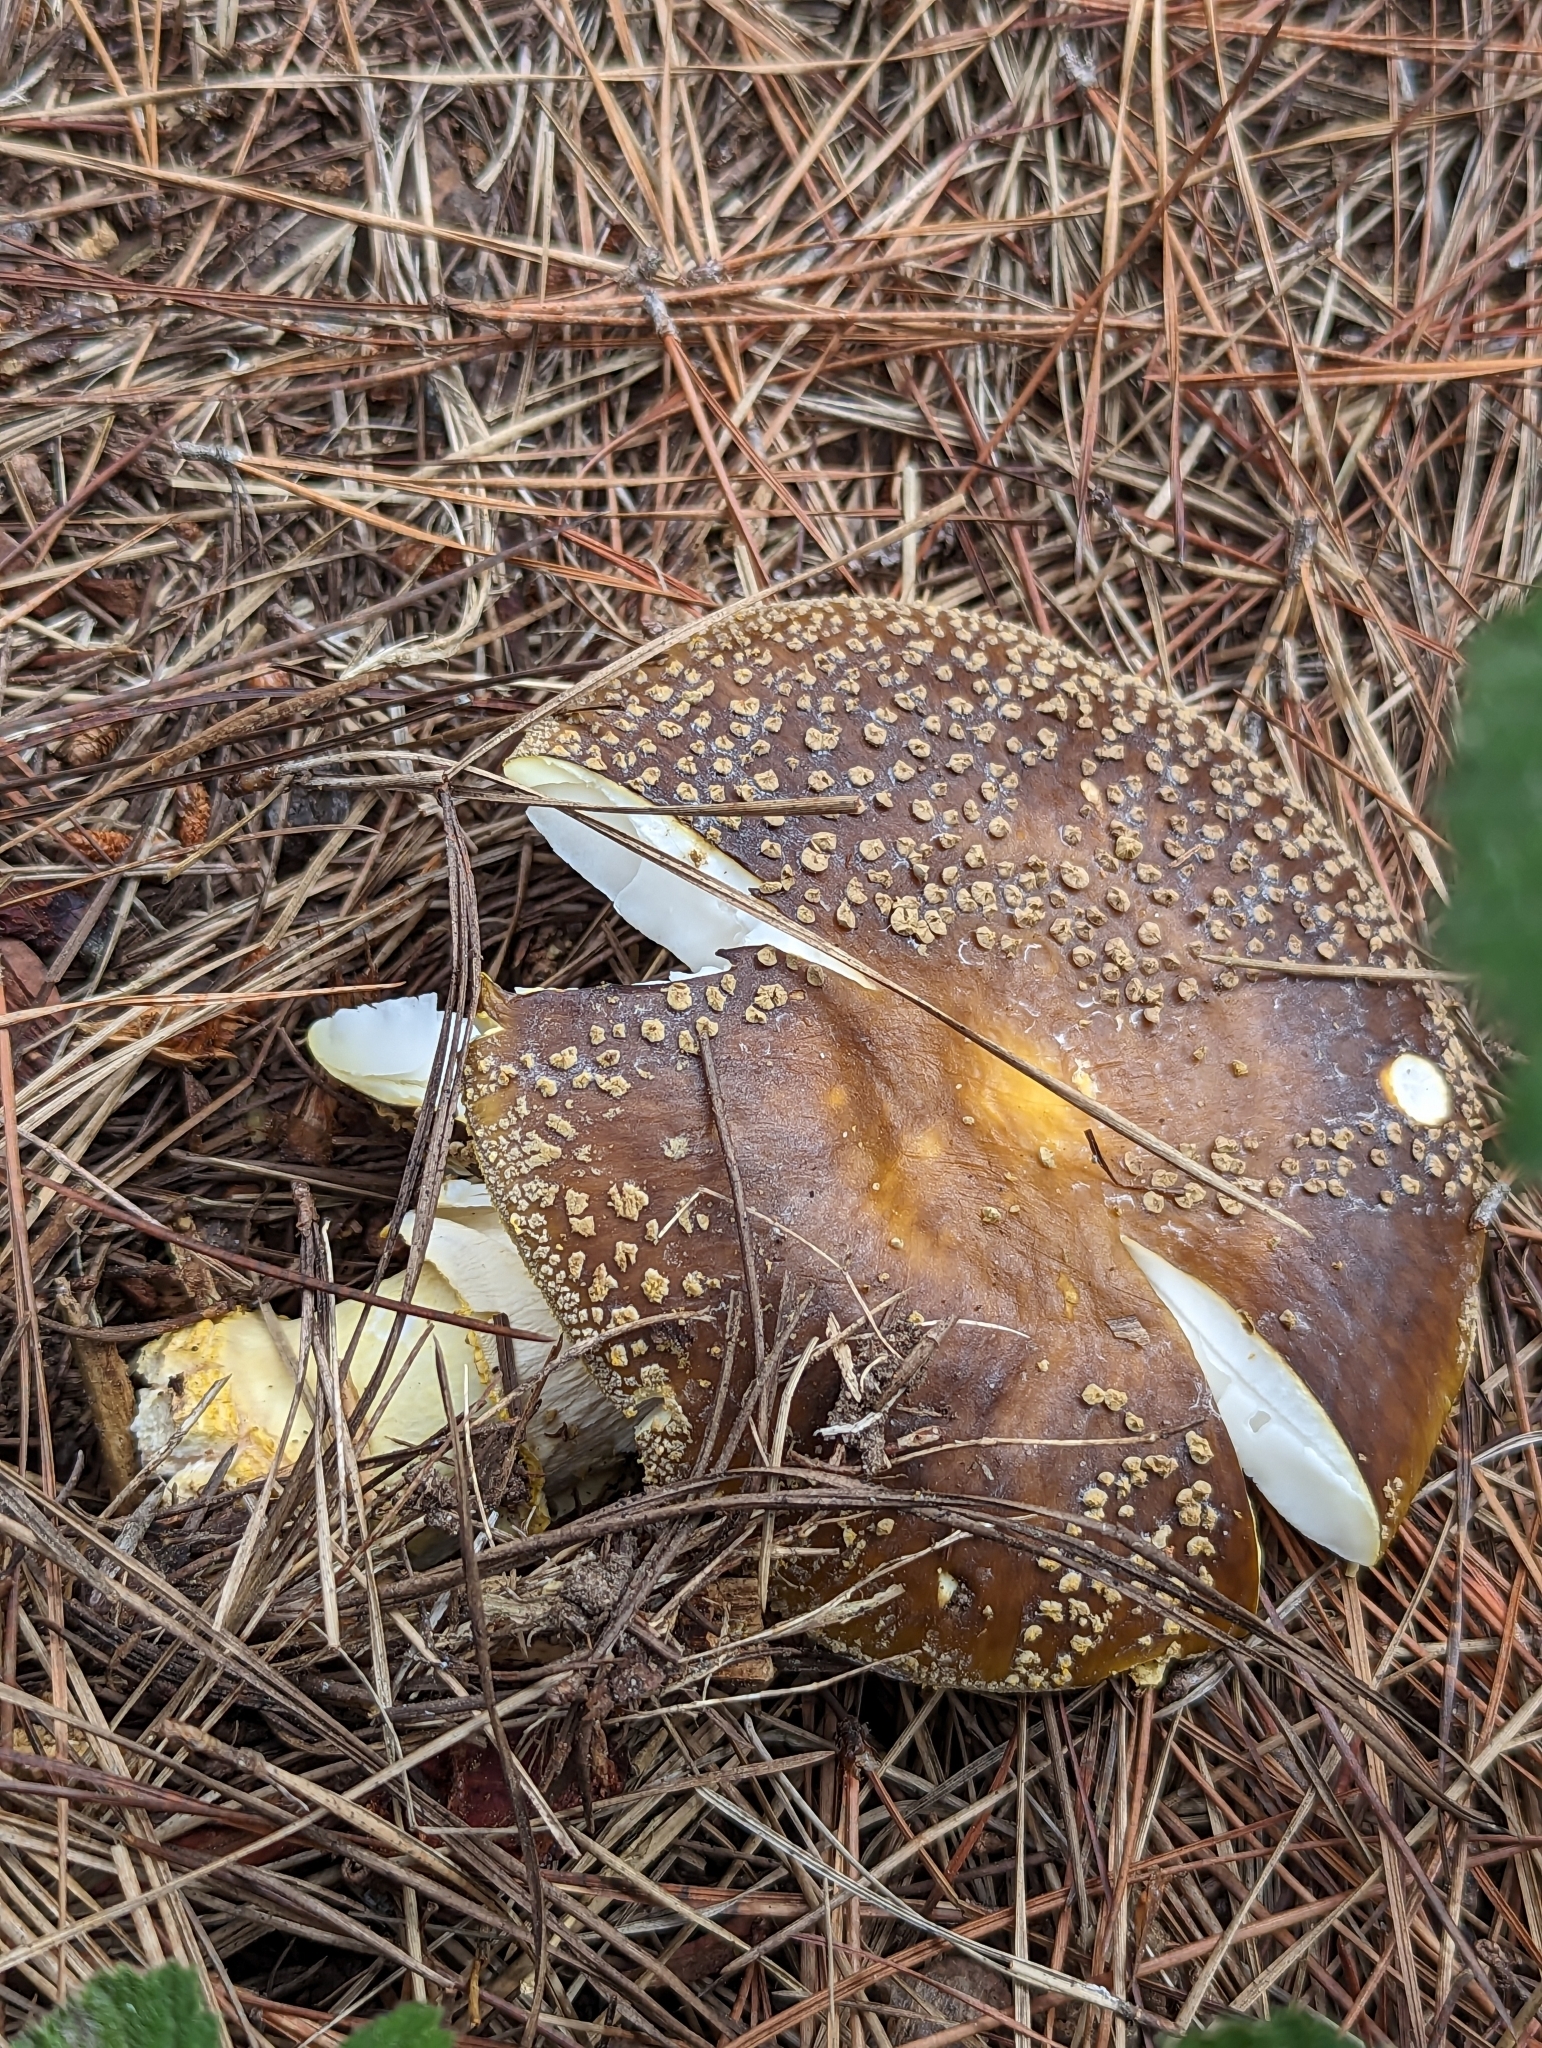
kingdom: Fungi
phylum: Basidiomycota
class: Agaricomycetes
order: Agaricales
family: Amanitaceae
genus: Amanita
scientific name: Amanita augusta
